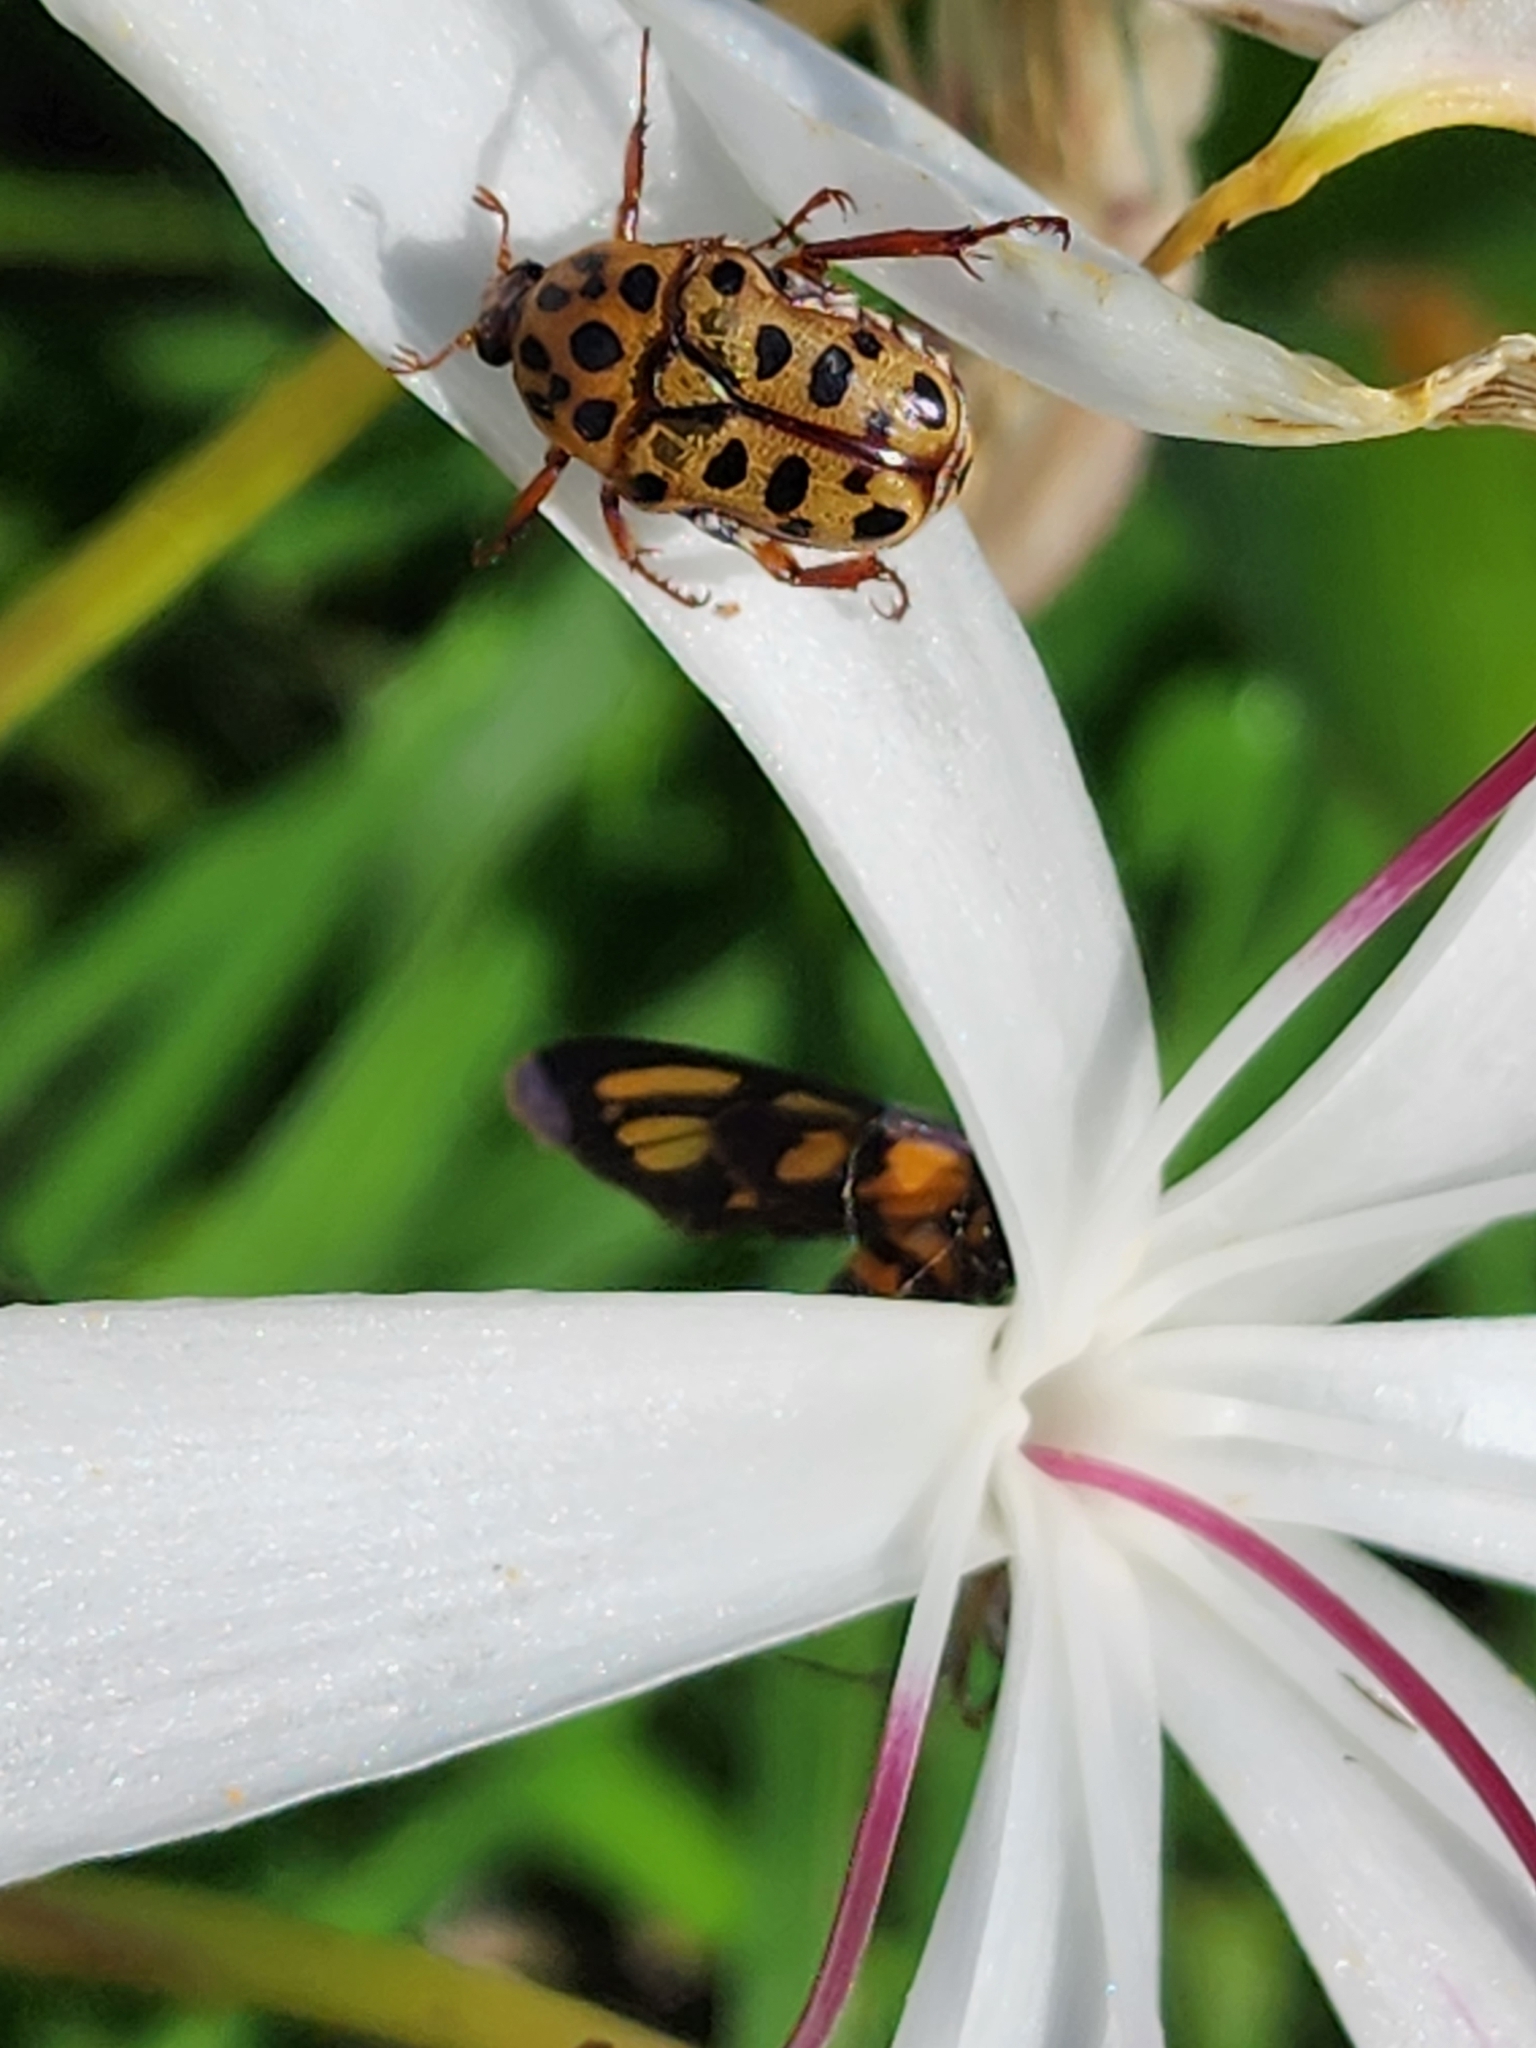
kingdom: Animalia
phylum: Arthropoda
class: Insecta
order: Coleoptera
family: Scarabaeidae
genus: Neorrhina
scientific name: Neorrhina punctatum
